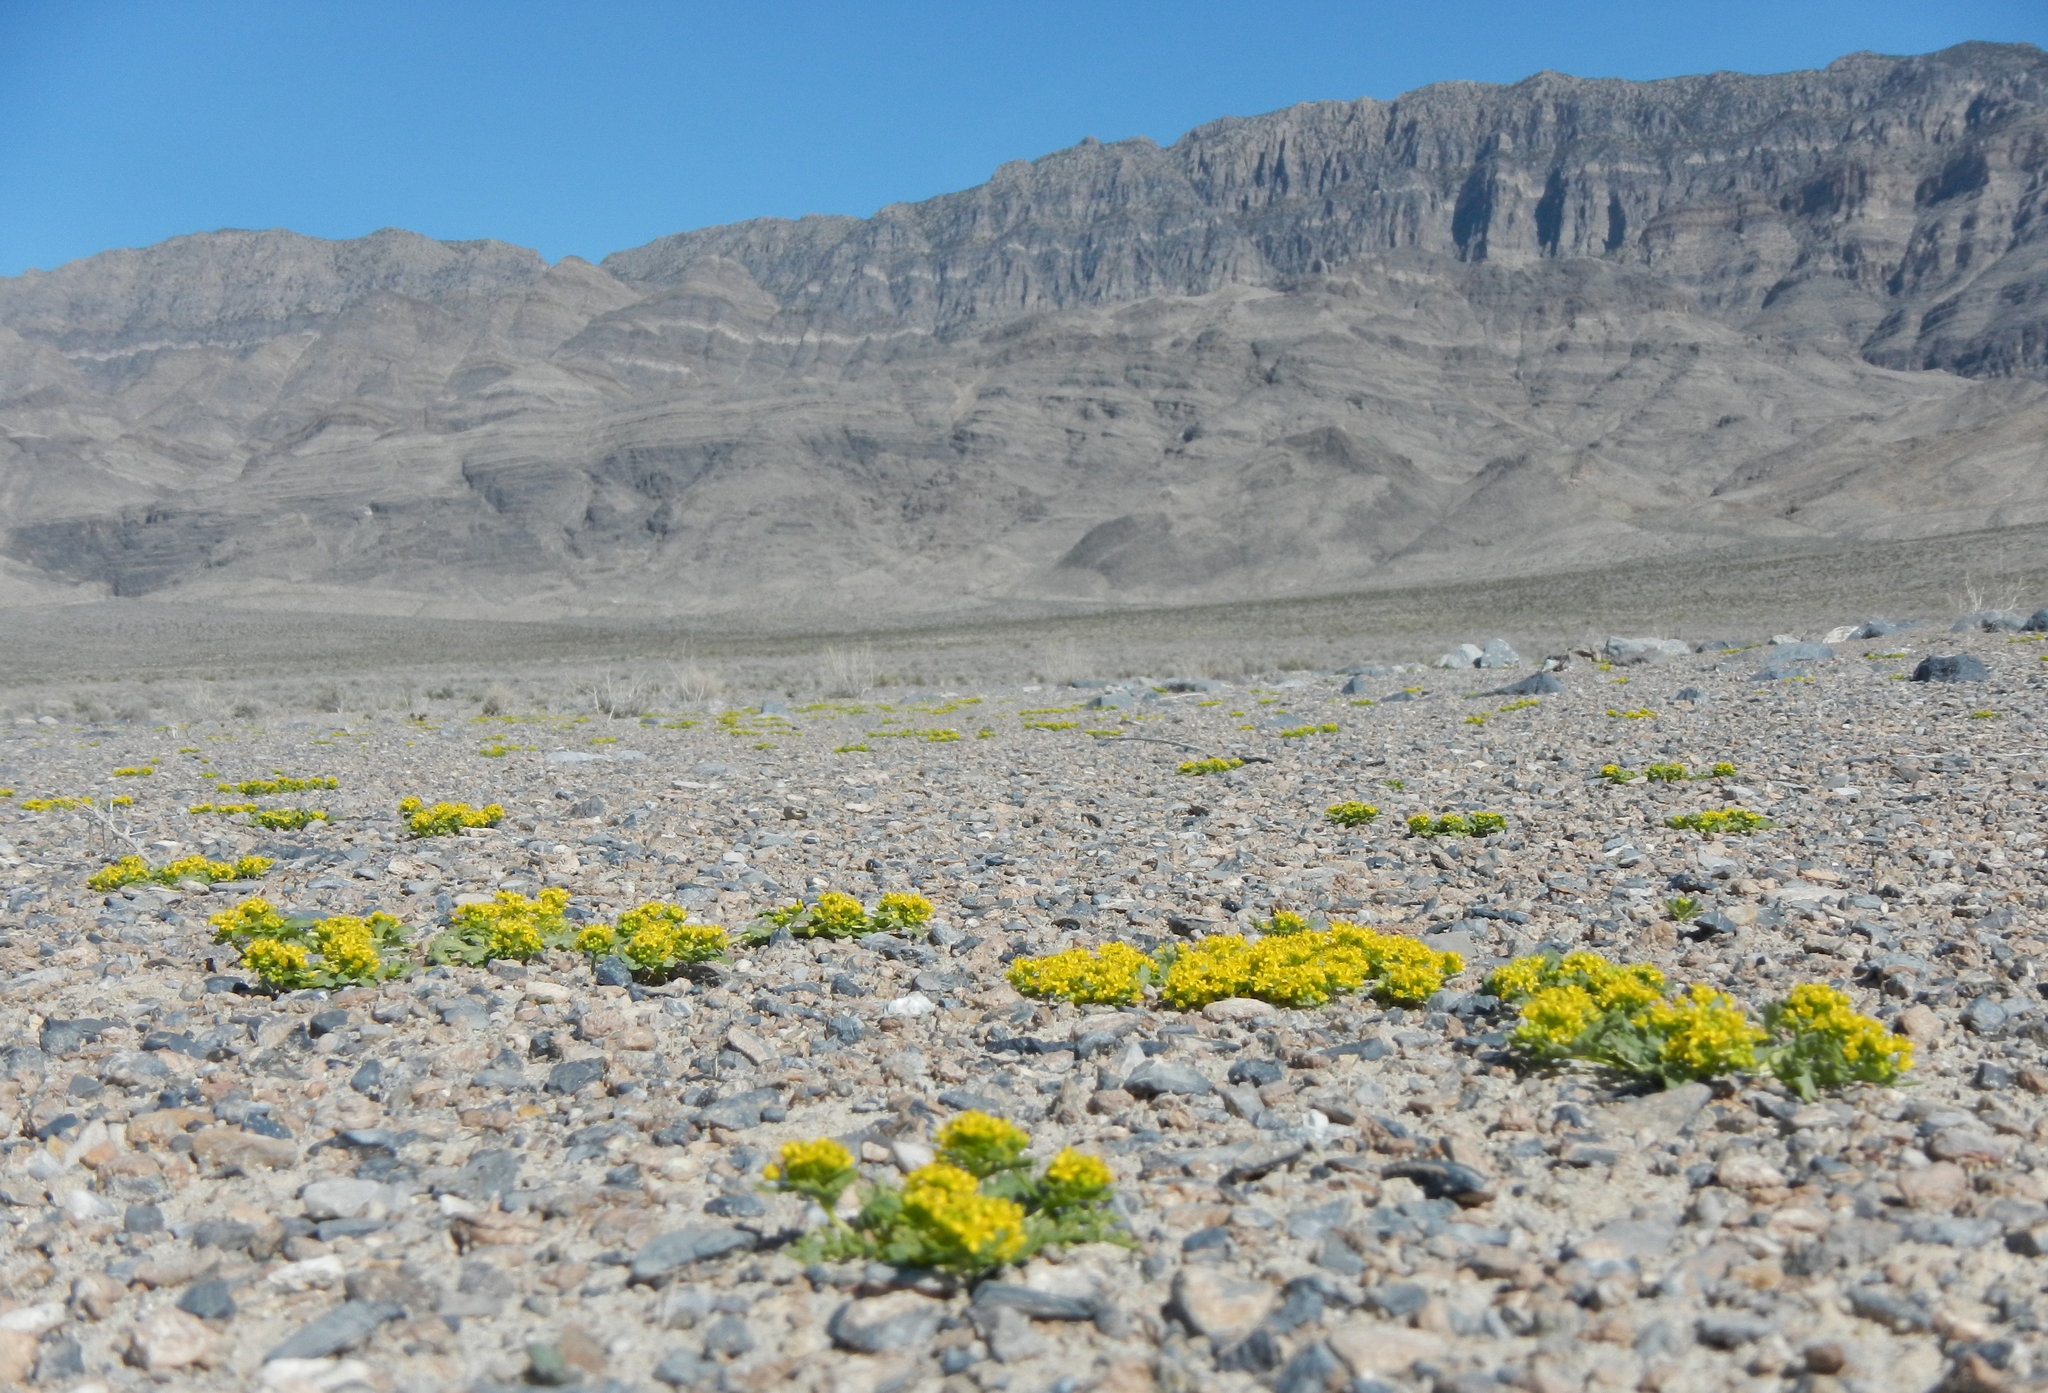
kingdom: Plantae
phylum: Tracheophyta
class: Magnoliopsida
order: Brassicales
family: Brassicaceae
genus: Lepidium
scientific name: Lepidium flavum
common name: Yellow pepperwort
